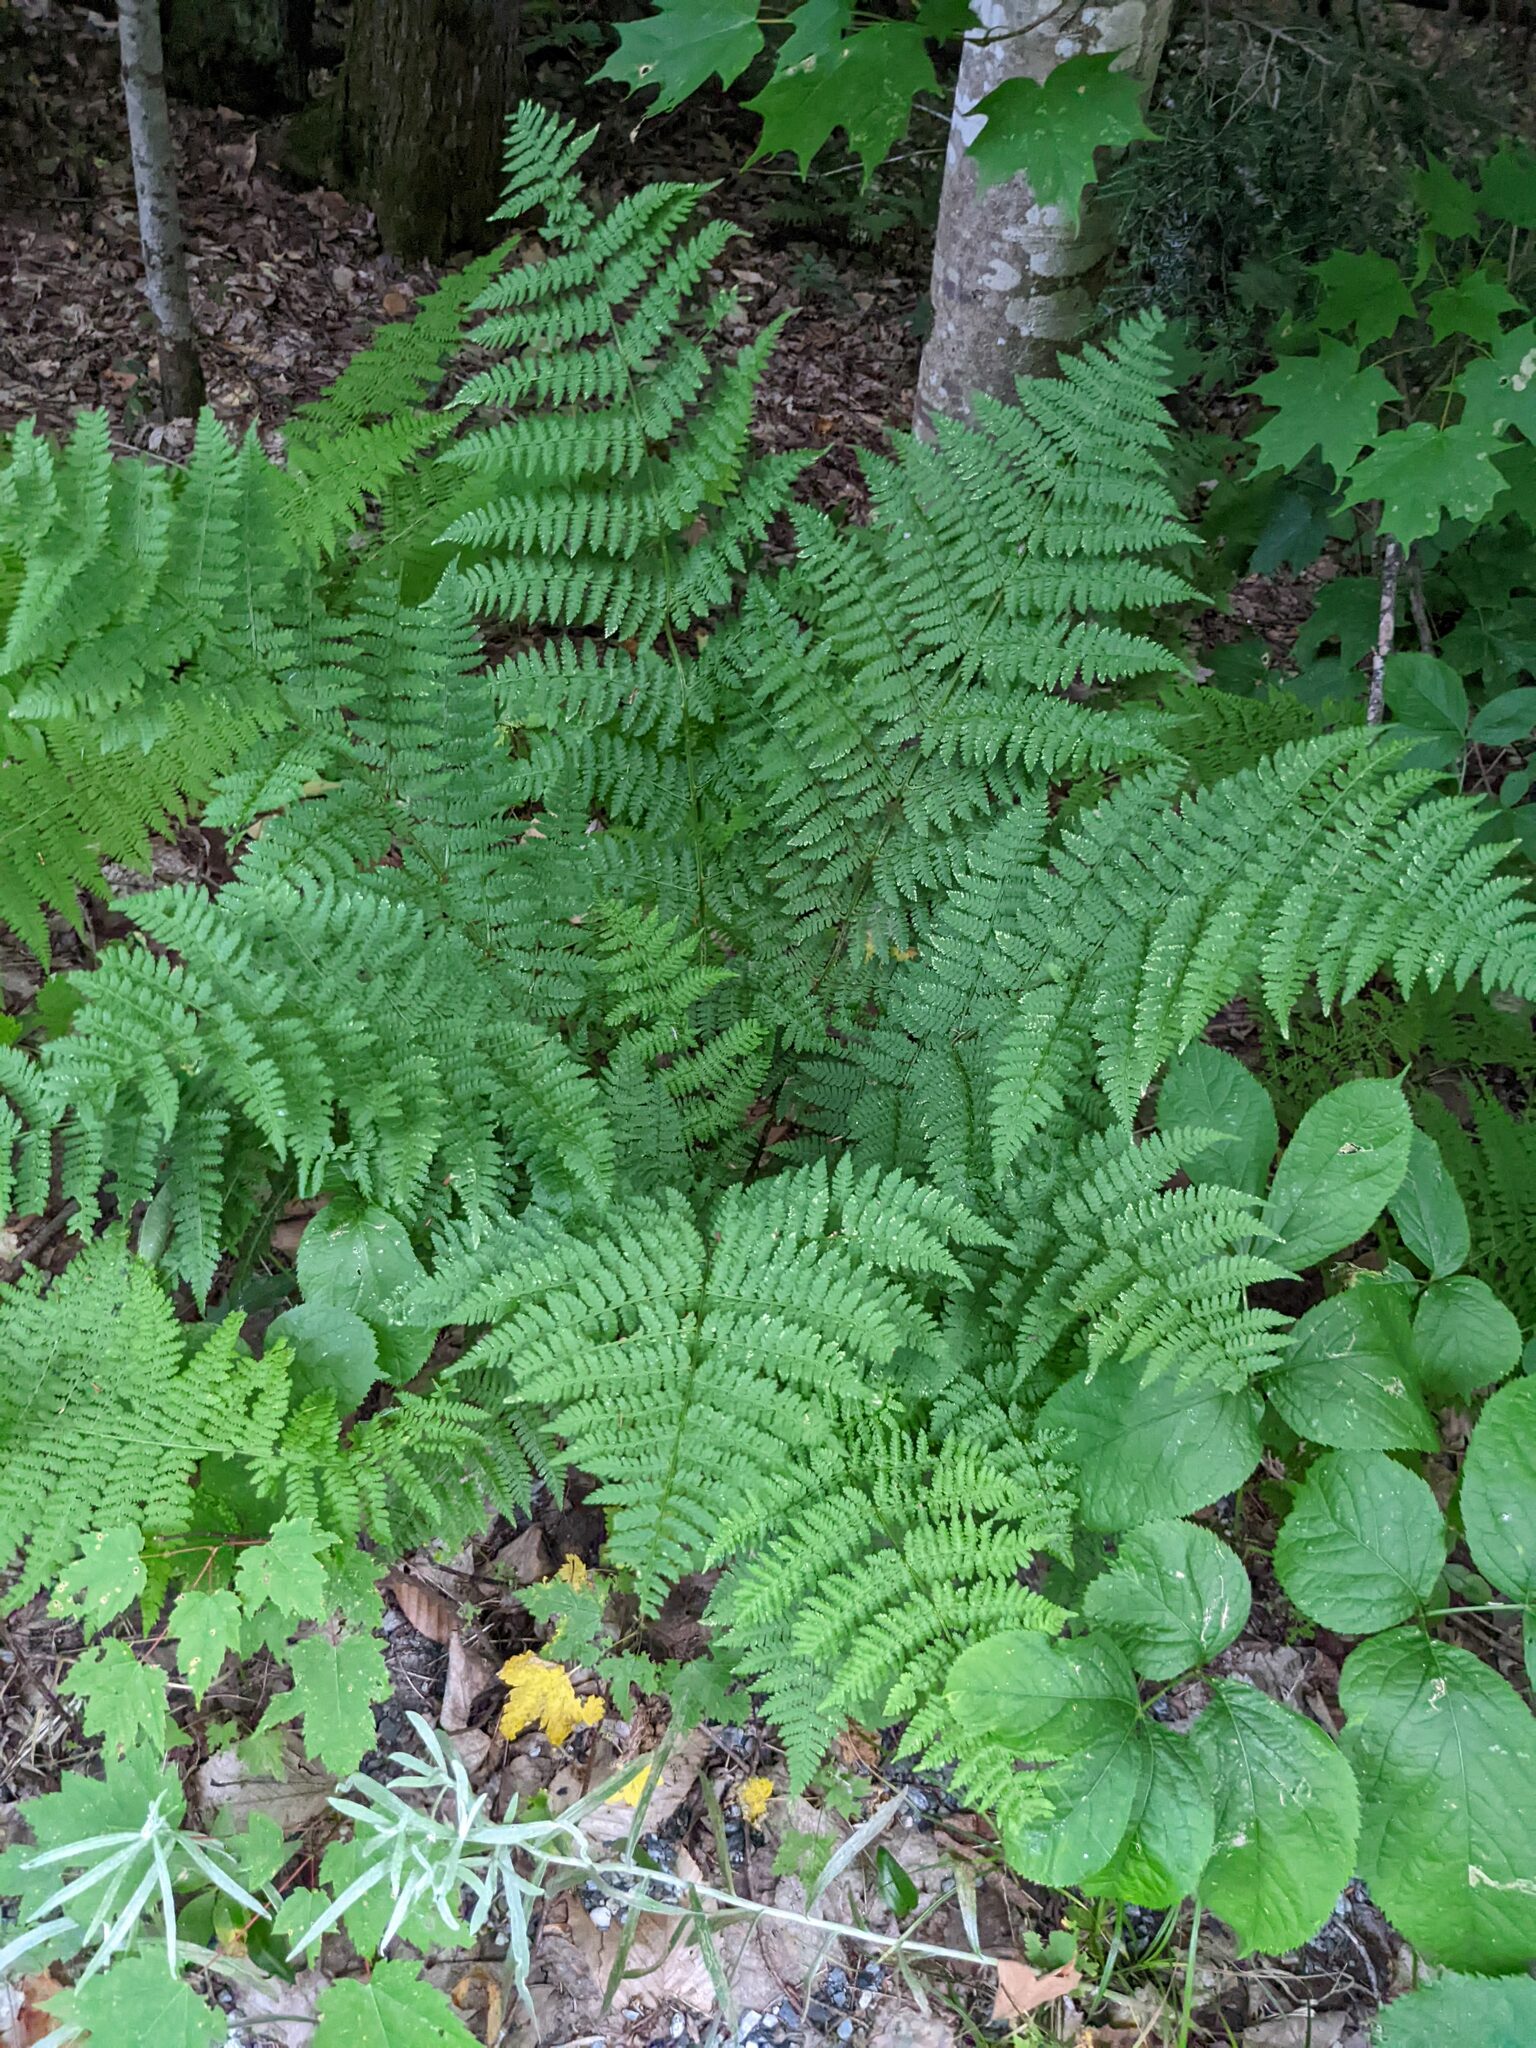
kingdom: Plantae
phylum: Tracheophyta
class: Polypodiopsida
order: Polypodiales
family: Dryopteridaceae
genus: Dryopteris
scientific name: Dryopteris intermedia
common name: Evergreen wood fern
